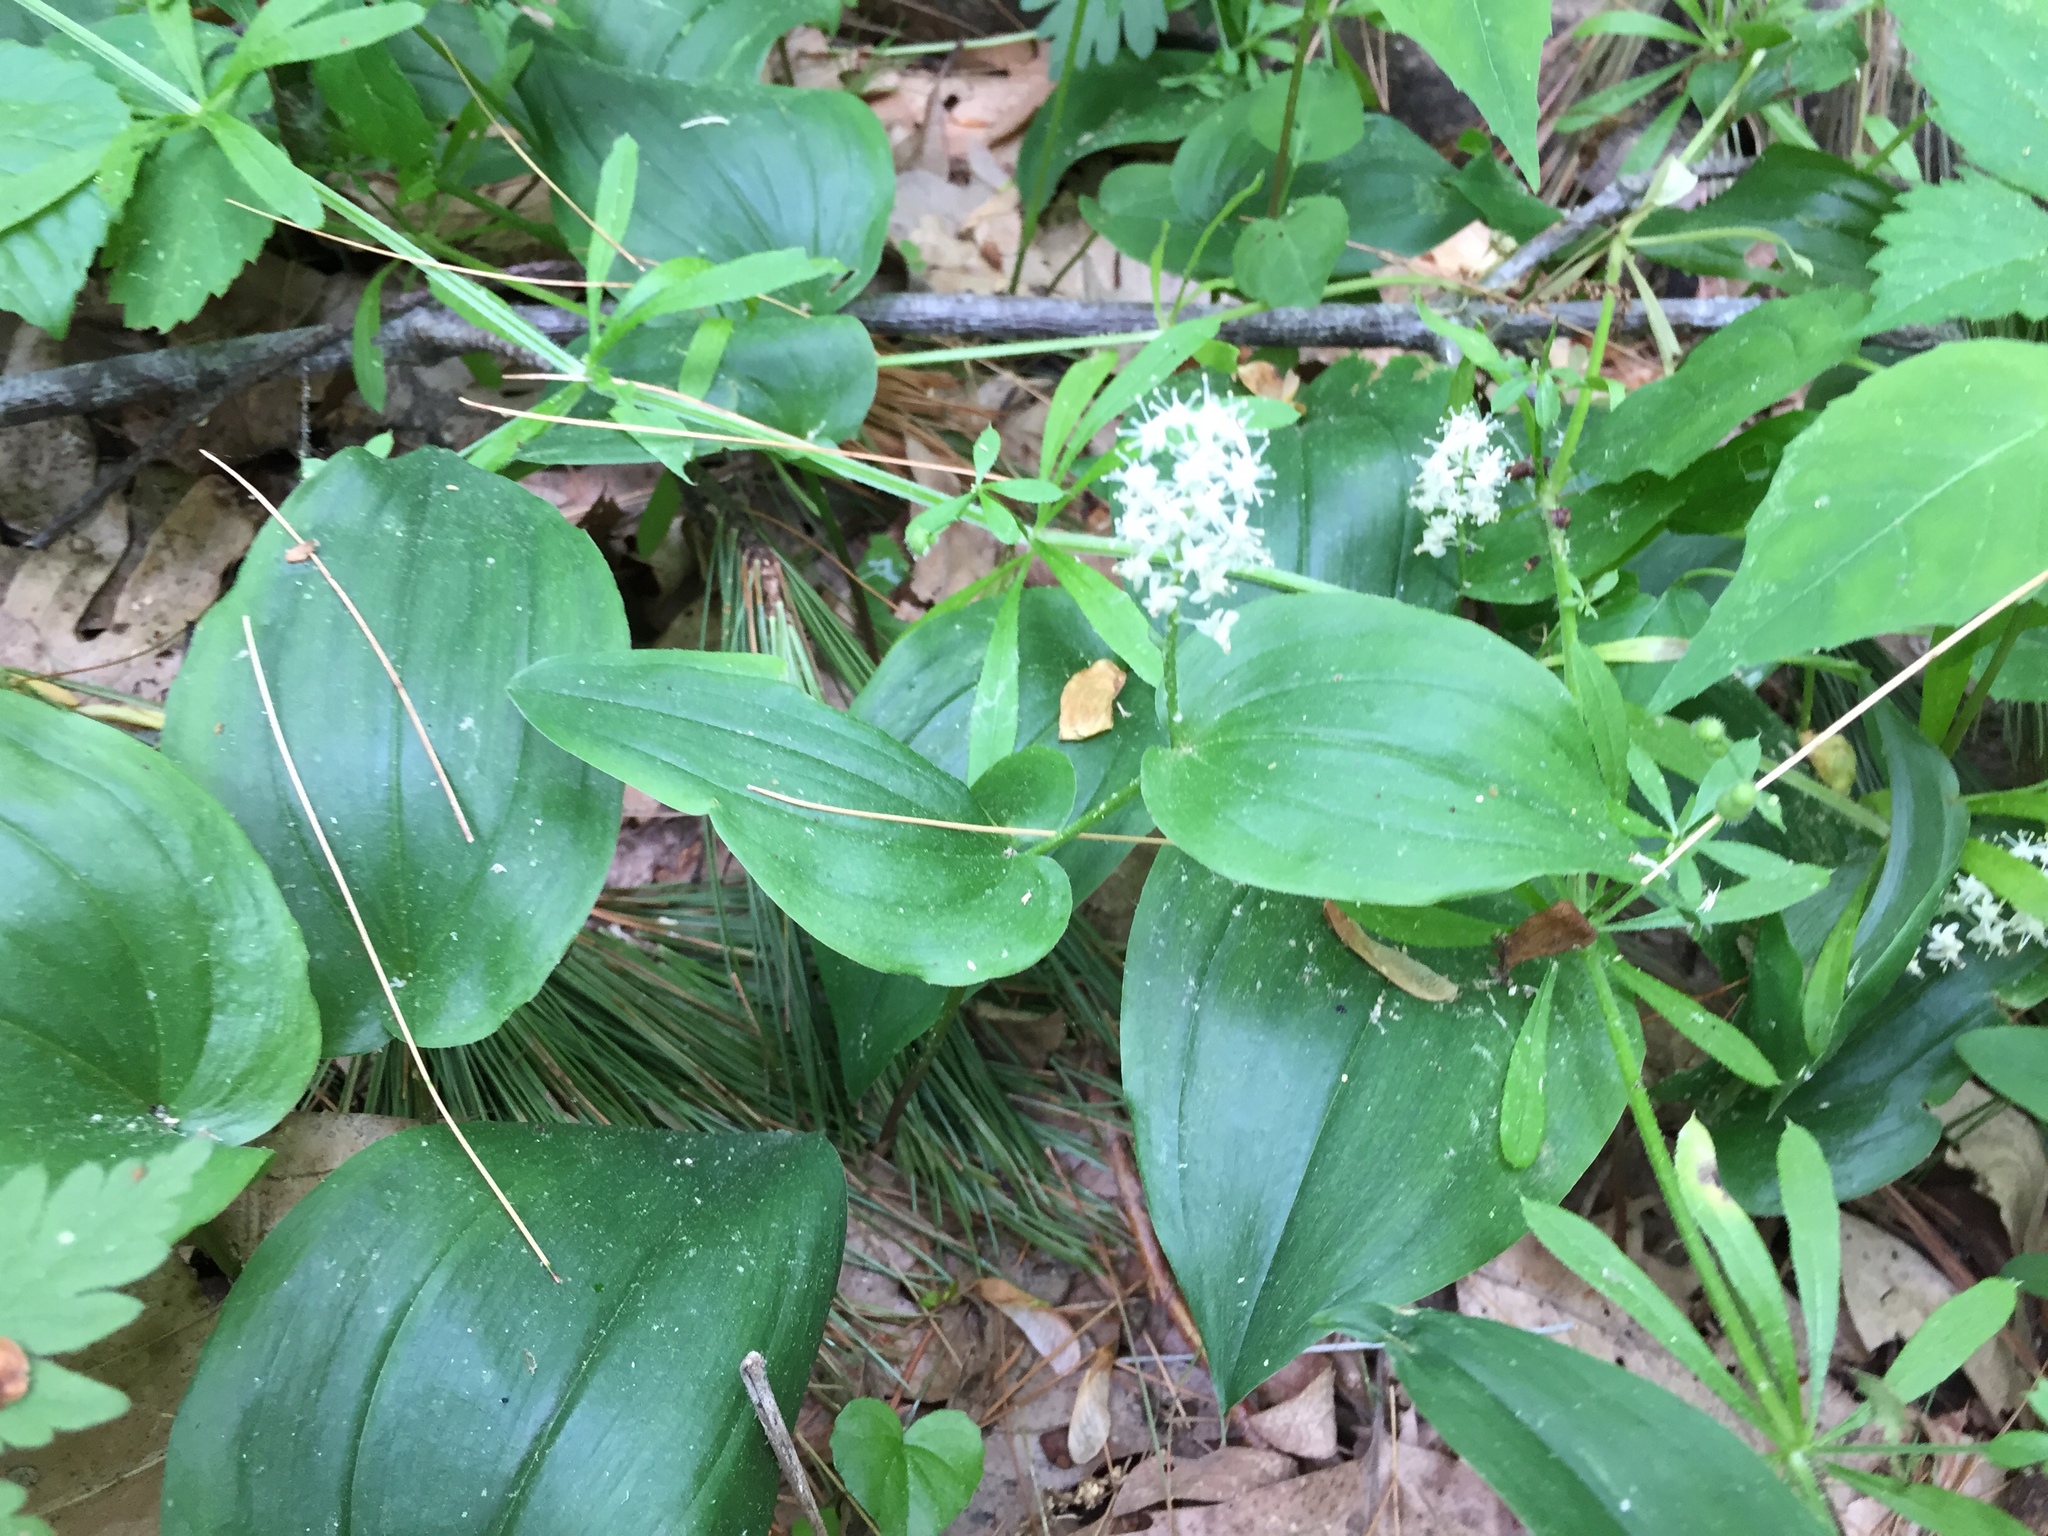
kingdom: Plantae
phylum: Tracheophyta
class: Liliopsida
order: Asparagales
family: Asparagaceae
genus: Maianthemum
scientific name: Maianthemum canadense
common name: False lily-of-the-valley
